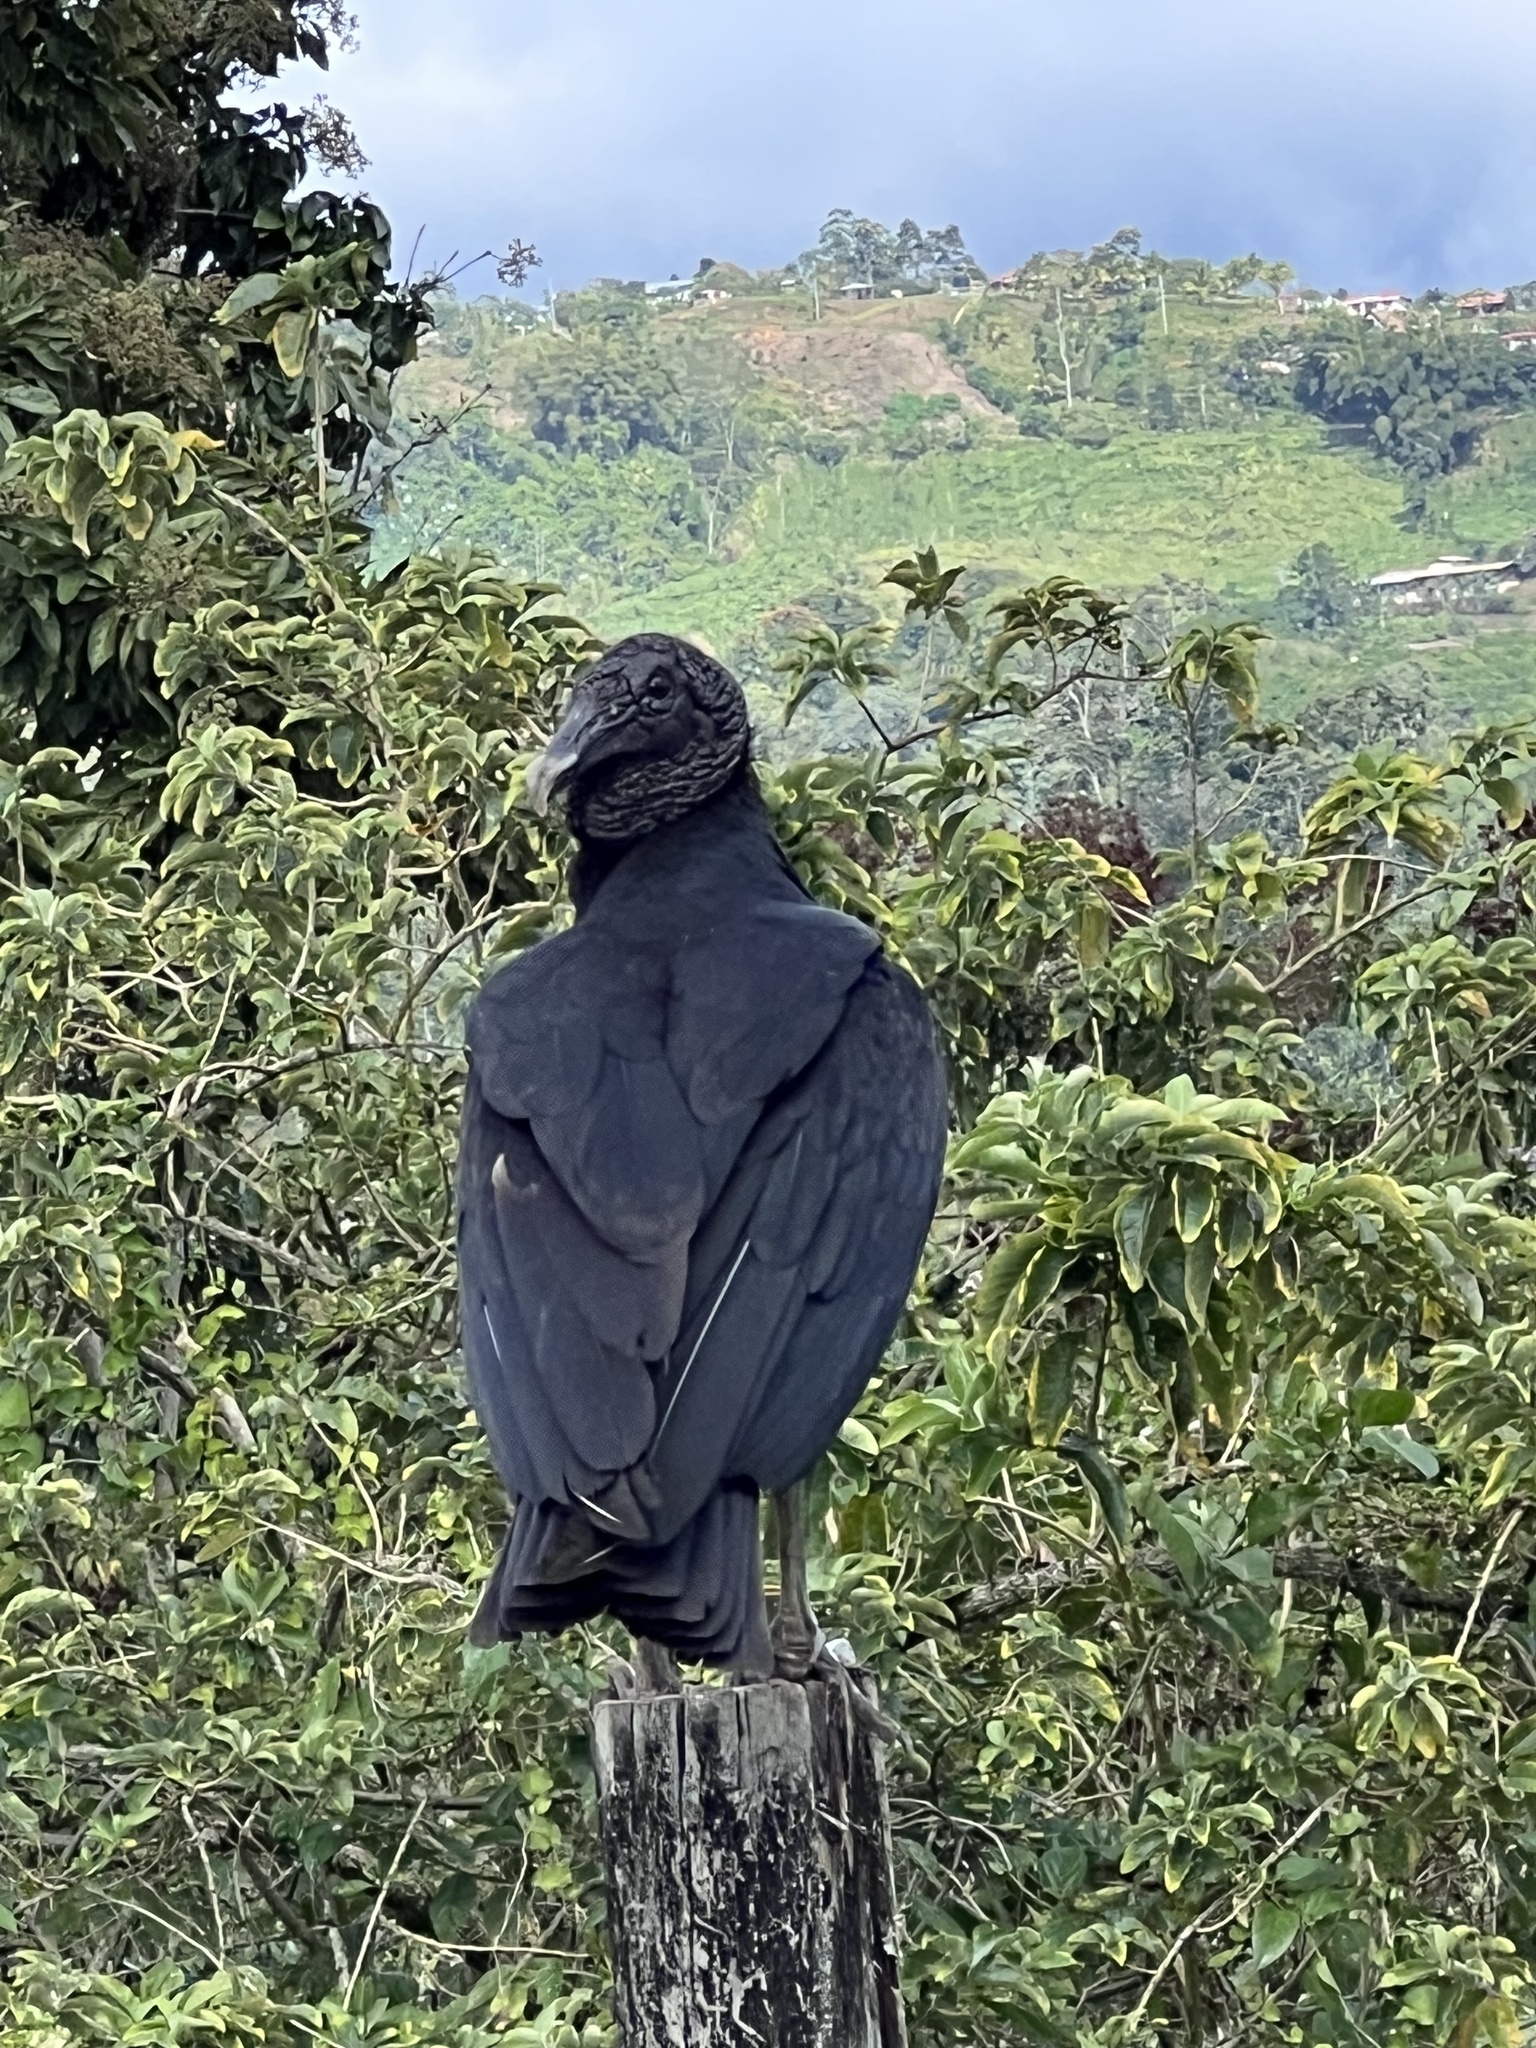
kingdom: Animalia
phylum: Chordata
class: Aves
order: Accipitriformes
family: Cathartidae
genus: Coragyps
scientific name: Coragyps atratus
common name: Black vulture
